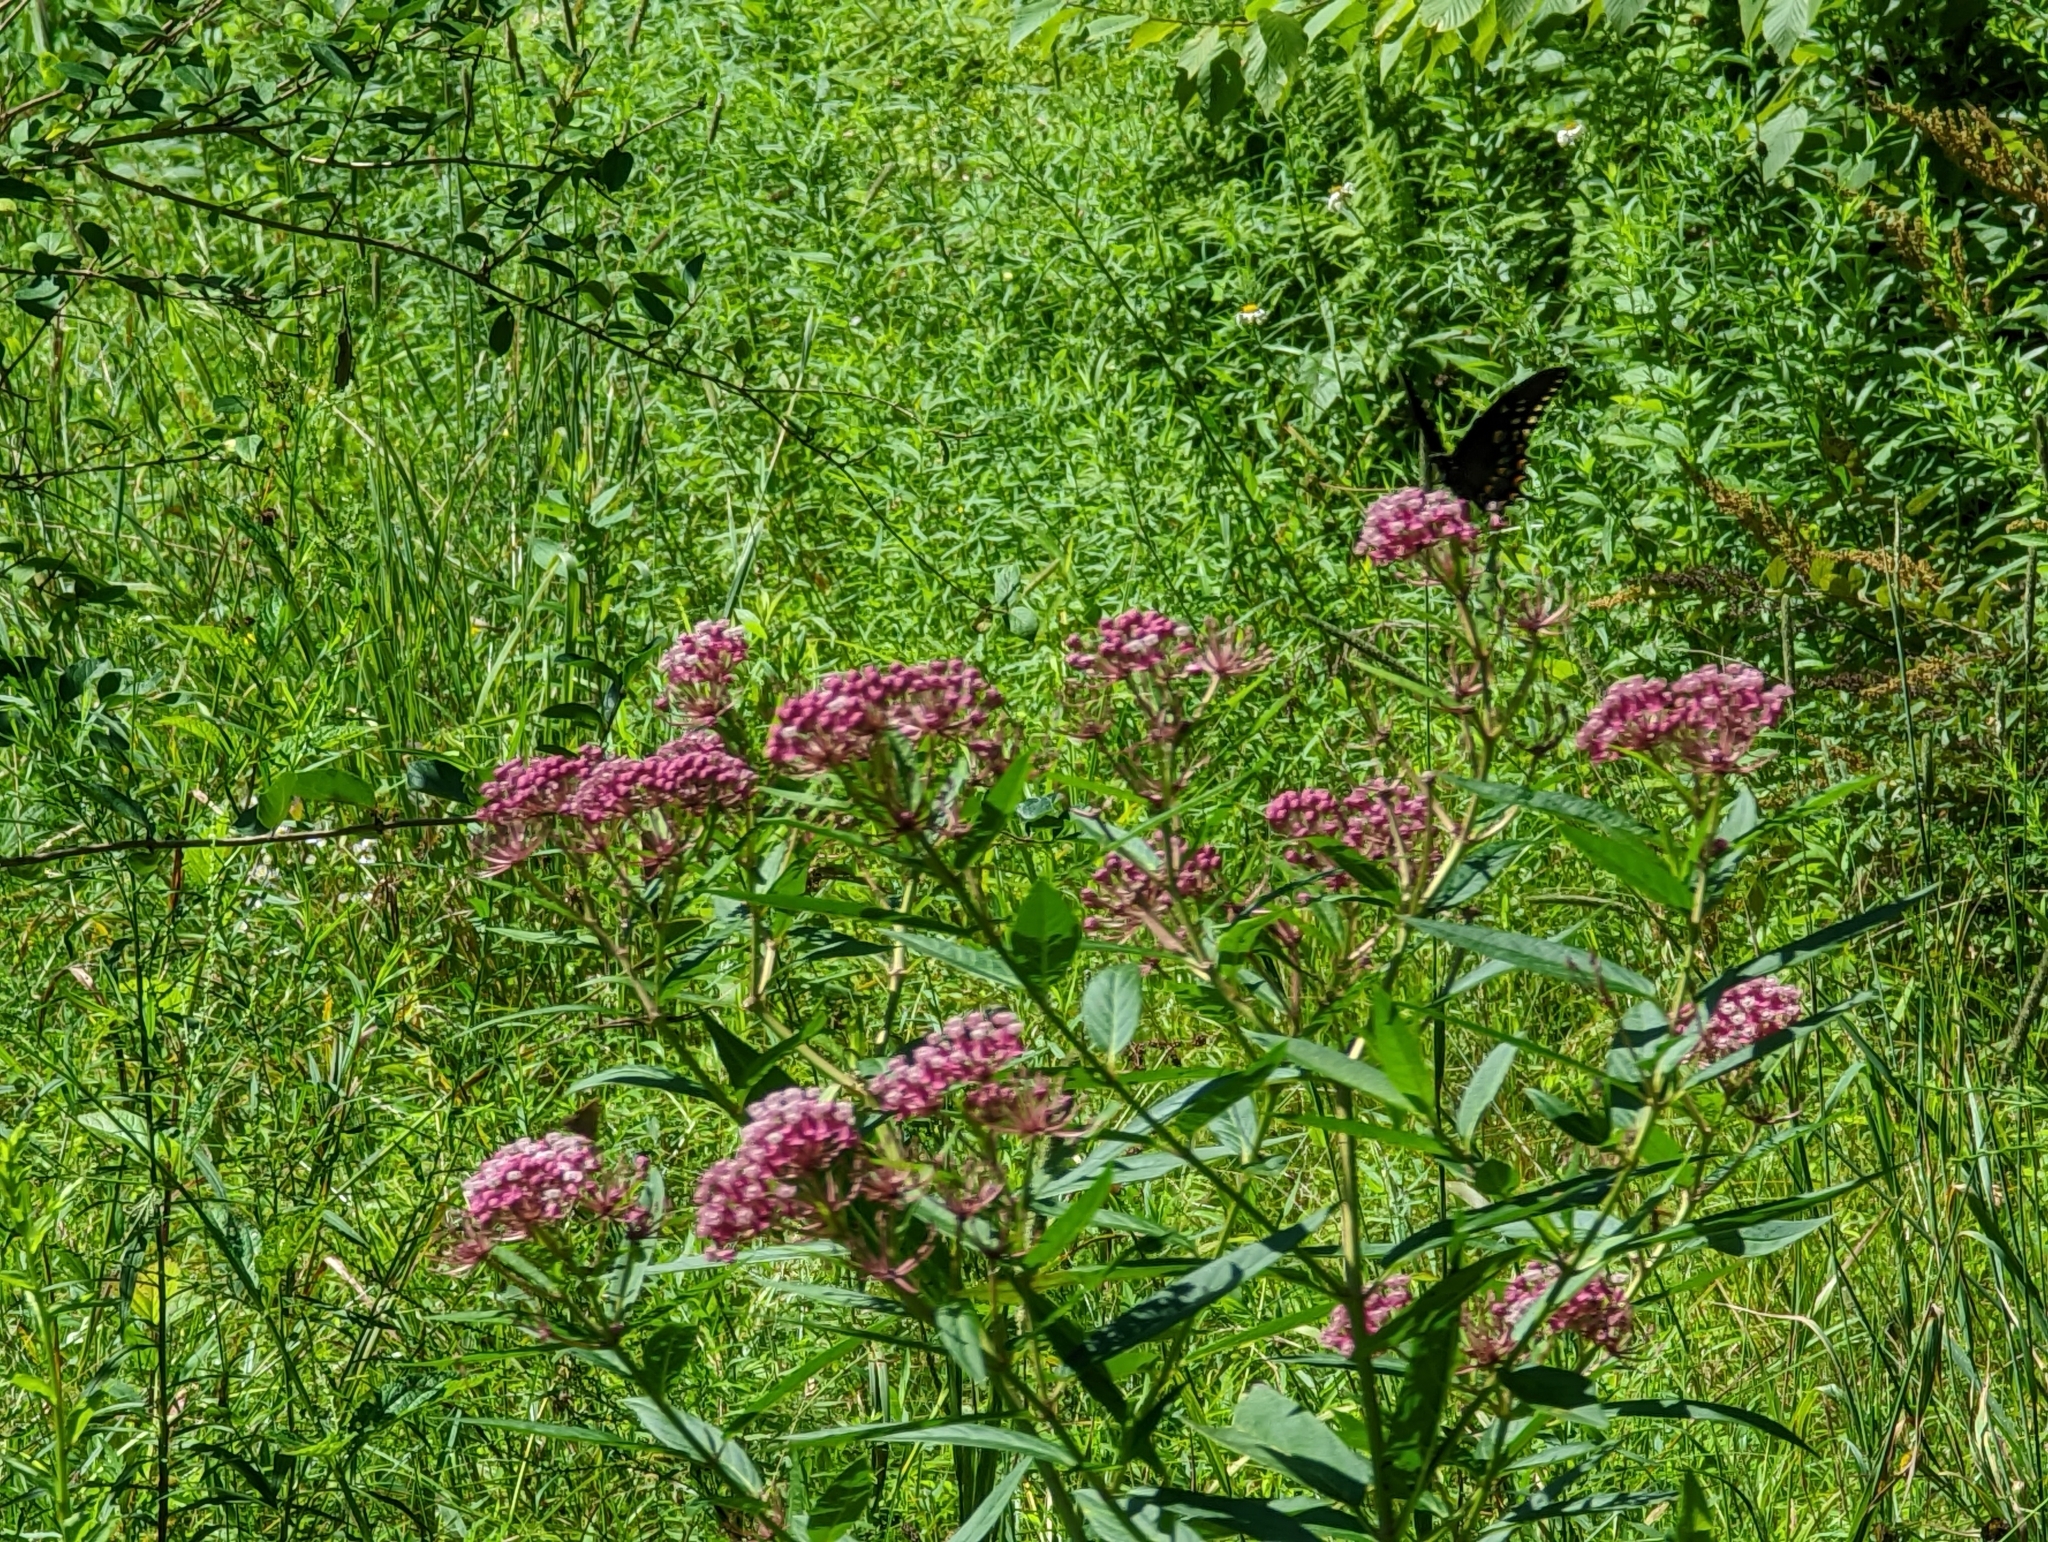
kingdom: Plantae
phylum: Tracheophyta
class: Magnoliopsida
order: Gentianales
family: Apocynaceae
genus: Asclepias
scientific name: Asclepias incarnata
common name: Swamp milkweed
